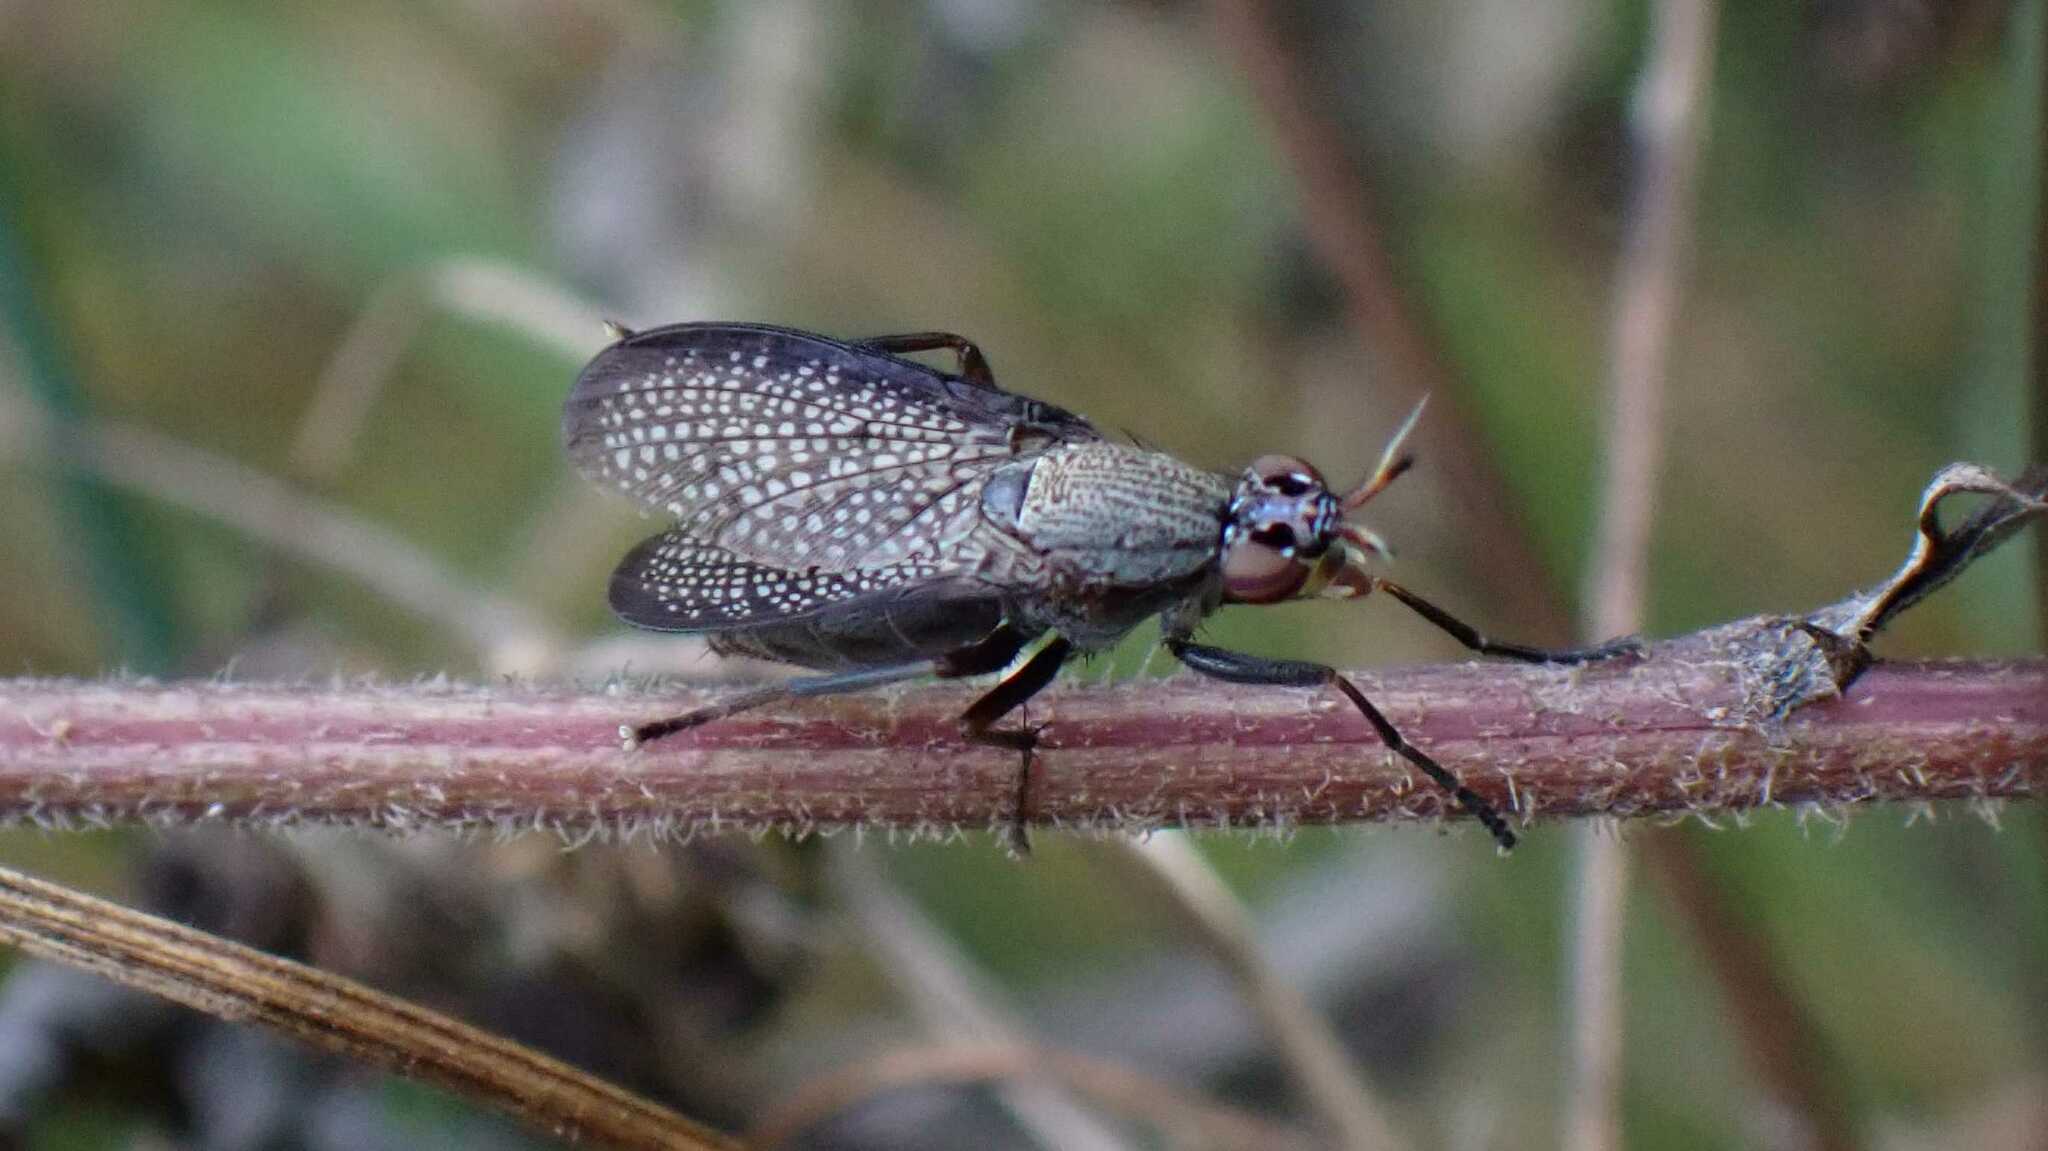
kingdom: Animalia
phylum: Arthropoda
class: Insecta
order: Diptera
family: Sciomyzidae
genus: Coremacera
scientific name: Coremacera marginata
